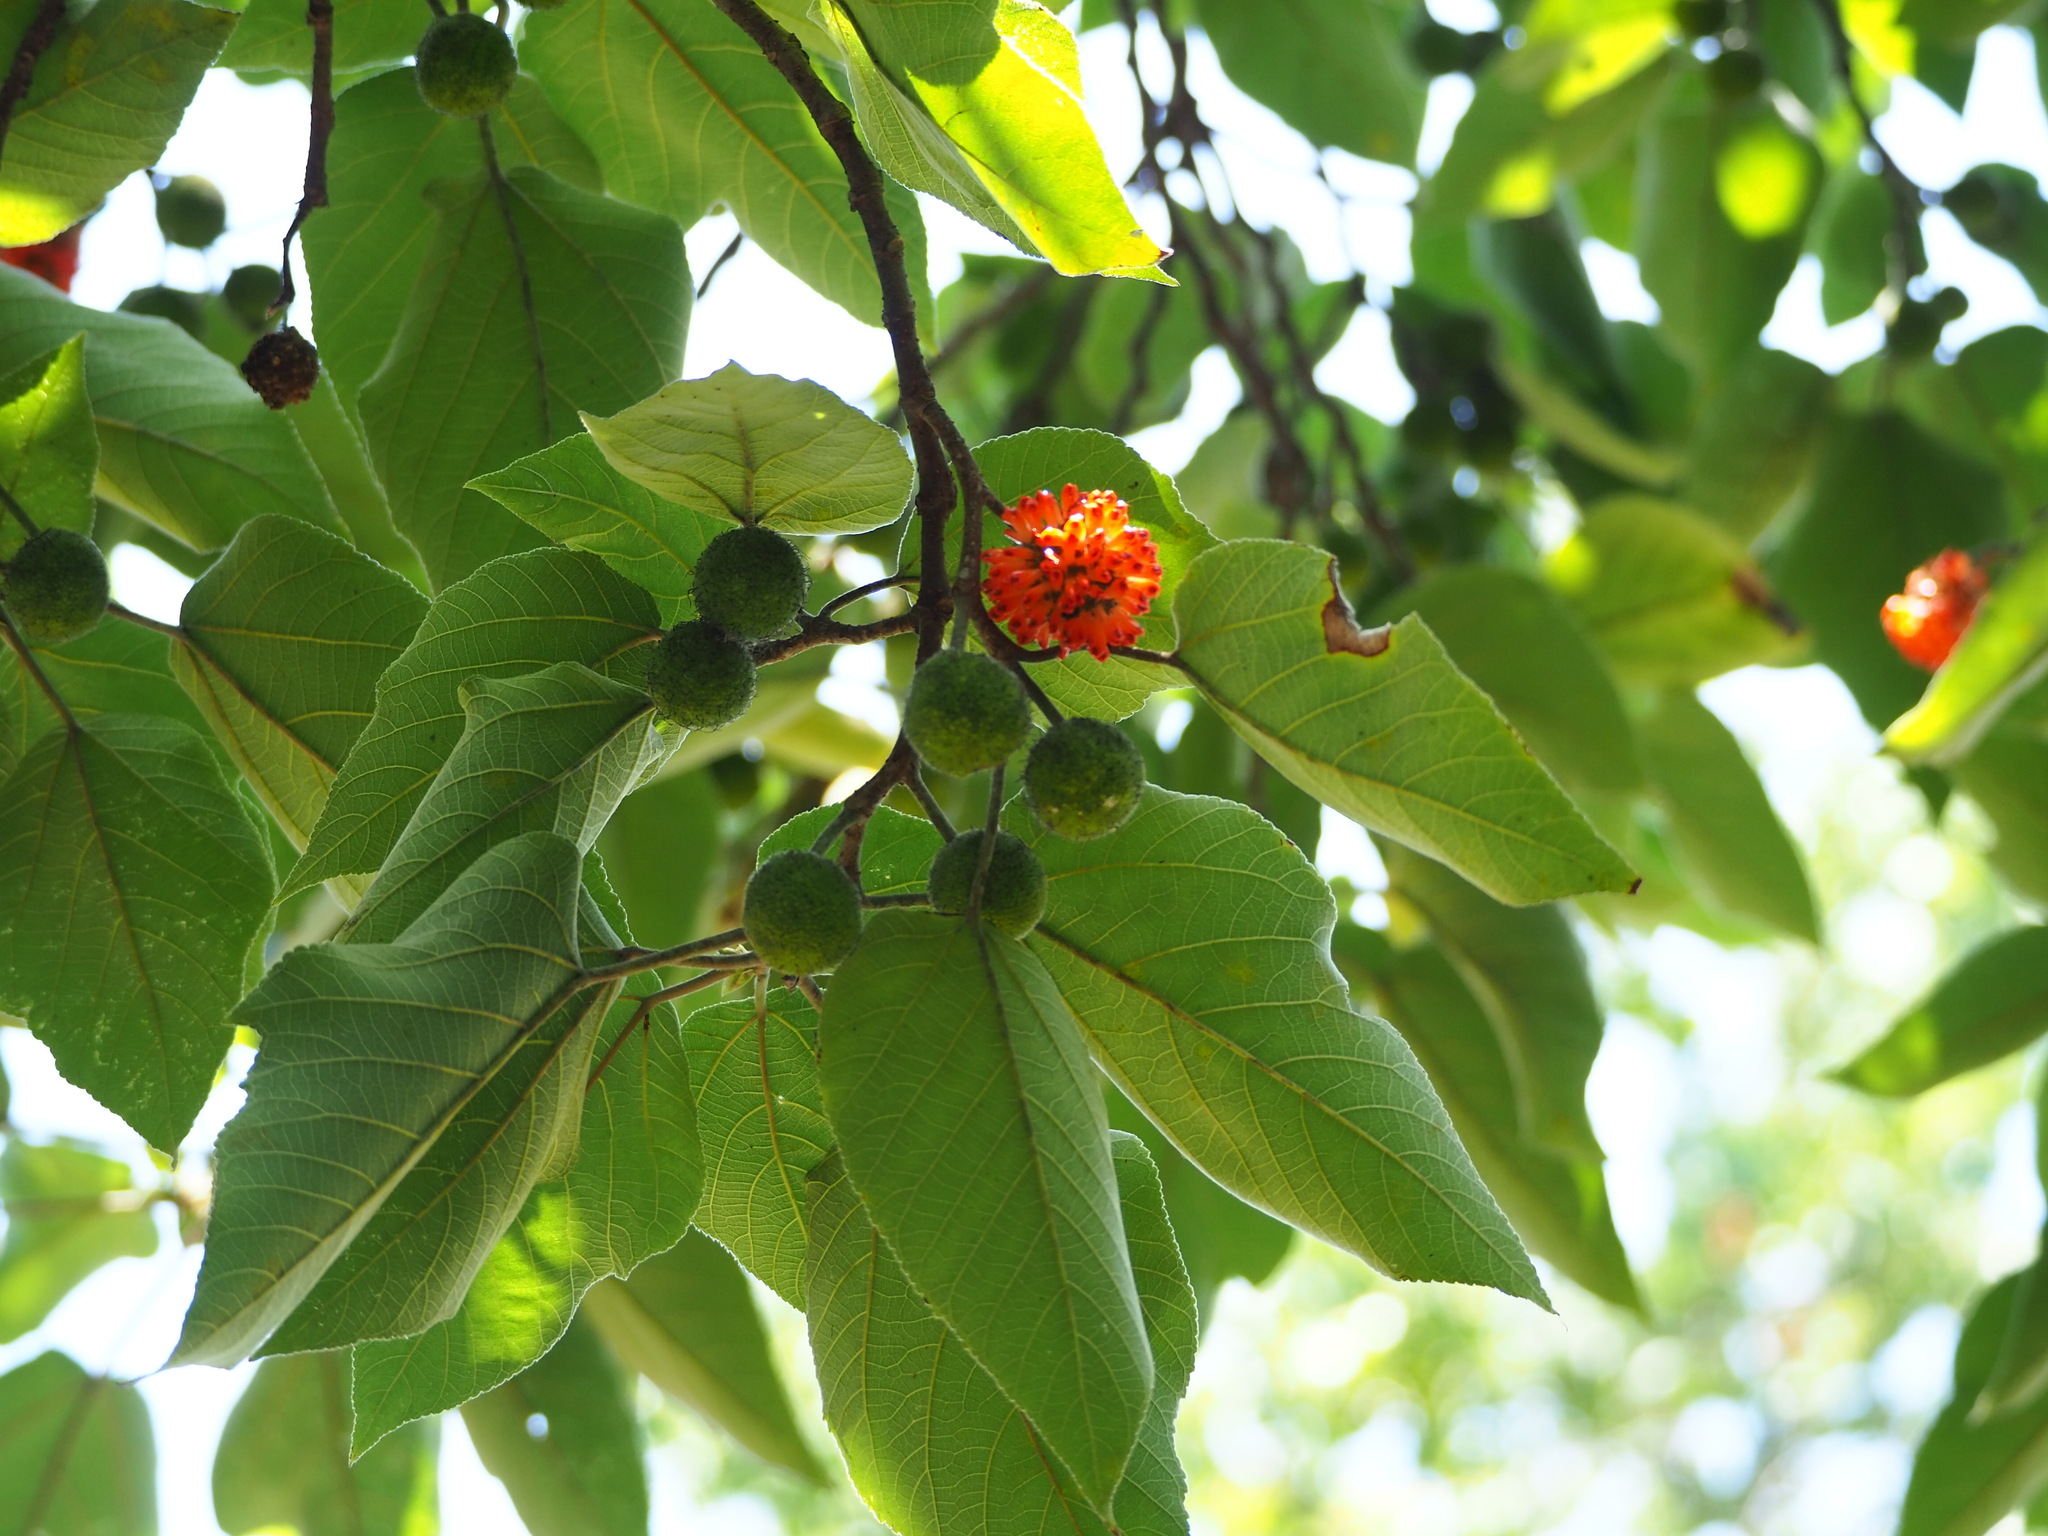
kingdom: Plantae
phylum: Tracheophyta
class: Magnoliopsida
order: Rosales
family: Moraceae
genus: Broussonetia
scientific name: Broussonetia papyrifera
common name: Paper mulberry
